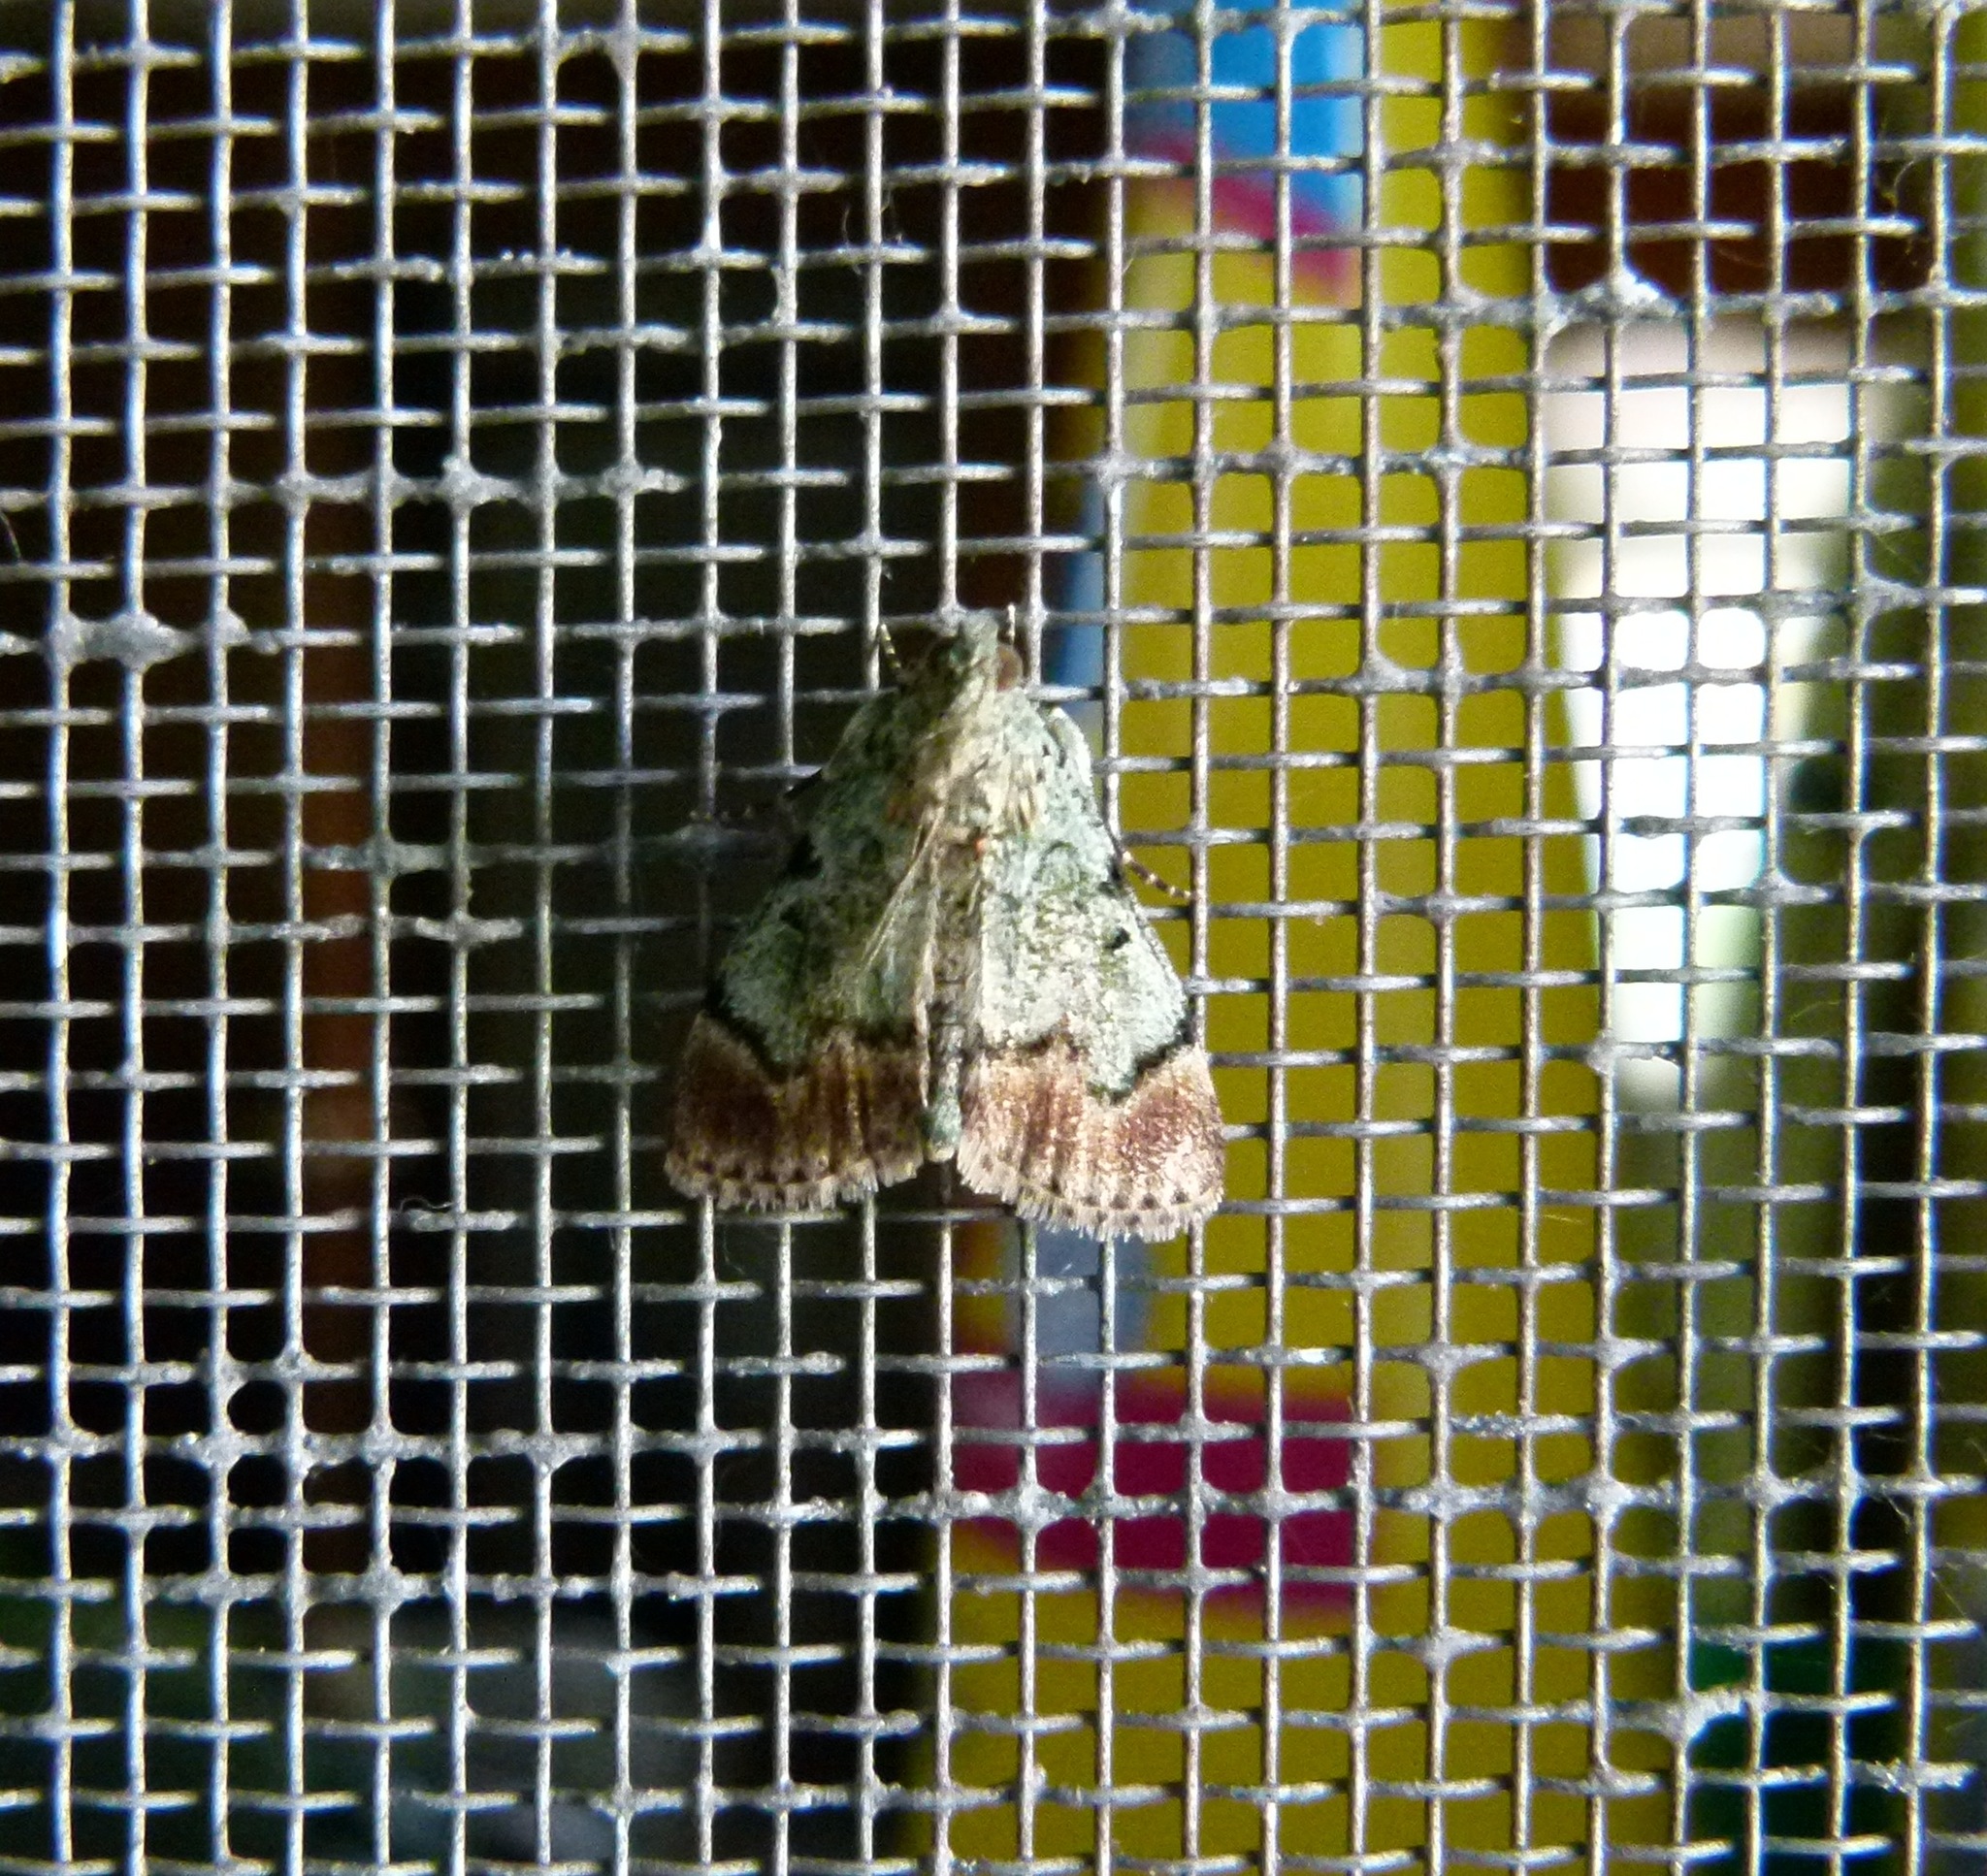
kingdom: Animalia
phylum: Arthropoda
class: Insecta
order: Lepidoptera
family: Pyralidae
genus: Epipaschia
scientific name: Epipaschia superatalis
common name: Dimorphic macalla moth
